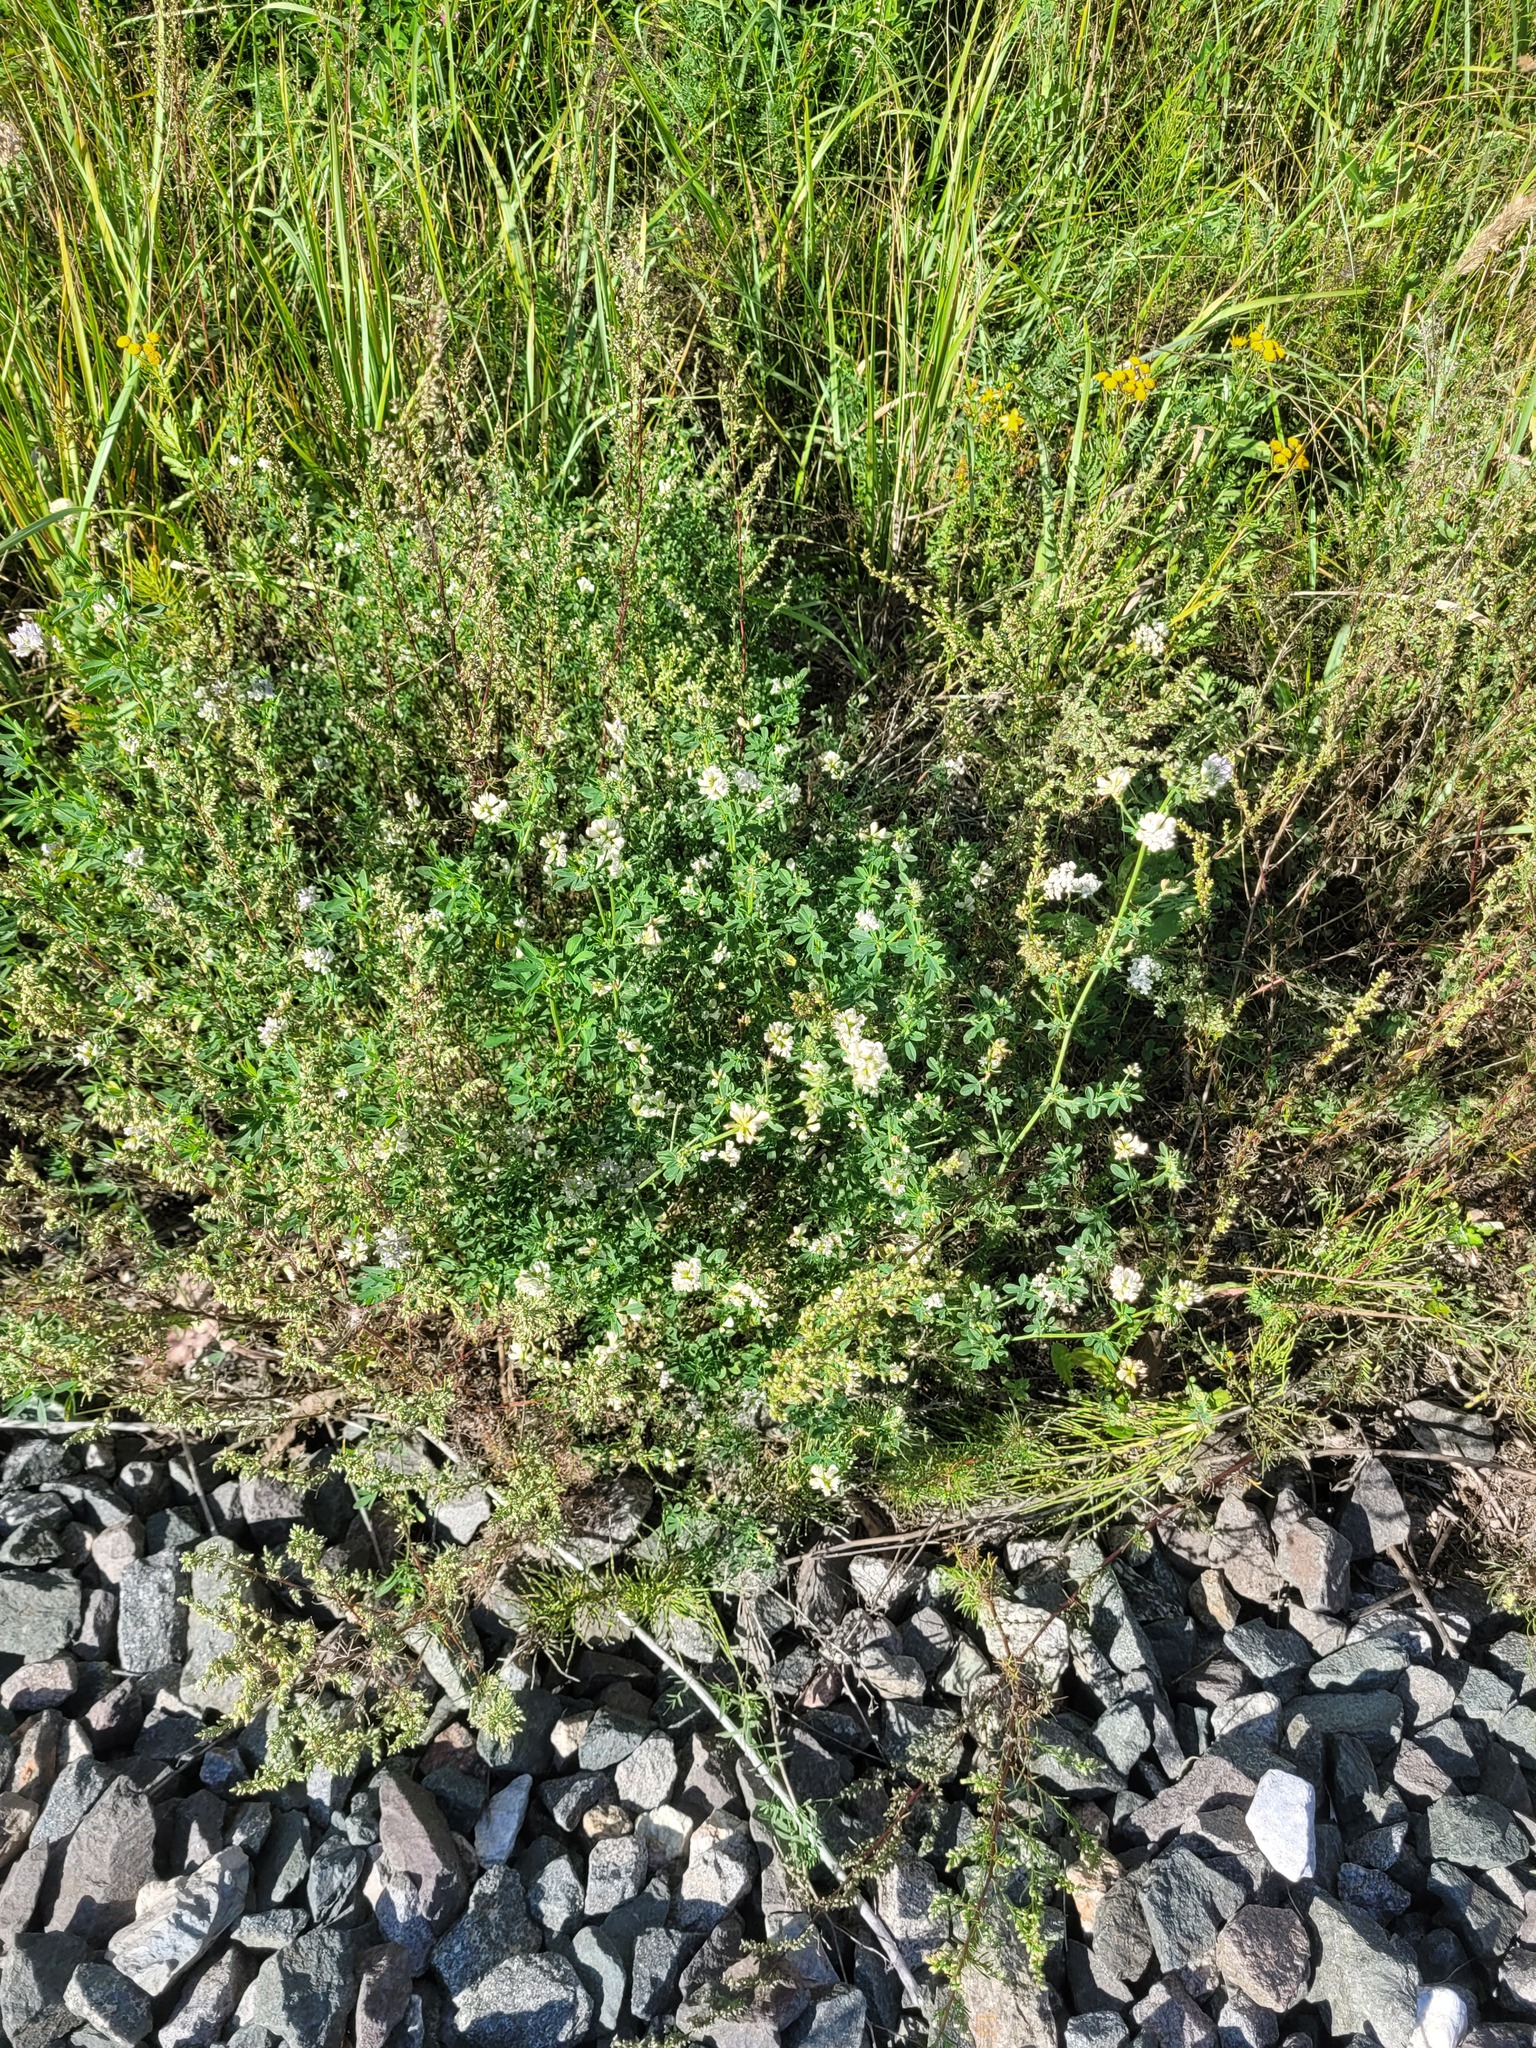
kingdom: Plantae
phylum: Tracheophyta
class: Magnoliopsida
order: Fabales
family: Fabaceae
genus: Medicago
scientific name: Medicago varia
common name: Sand lucerne
